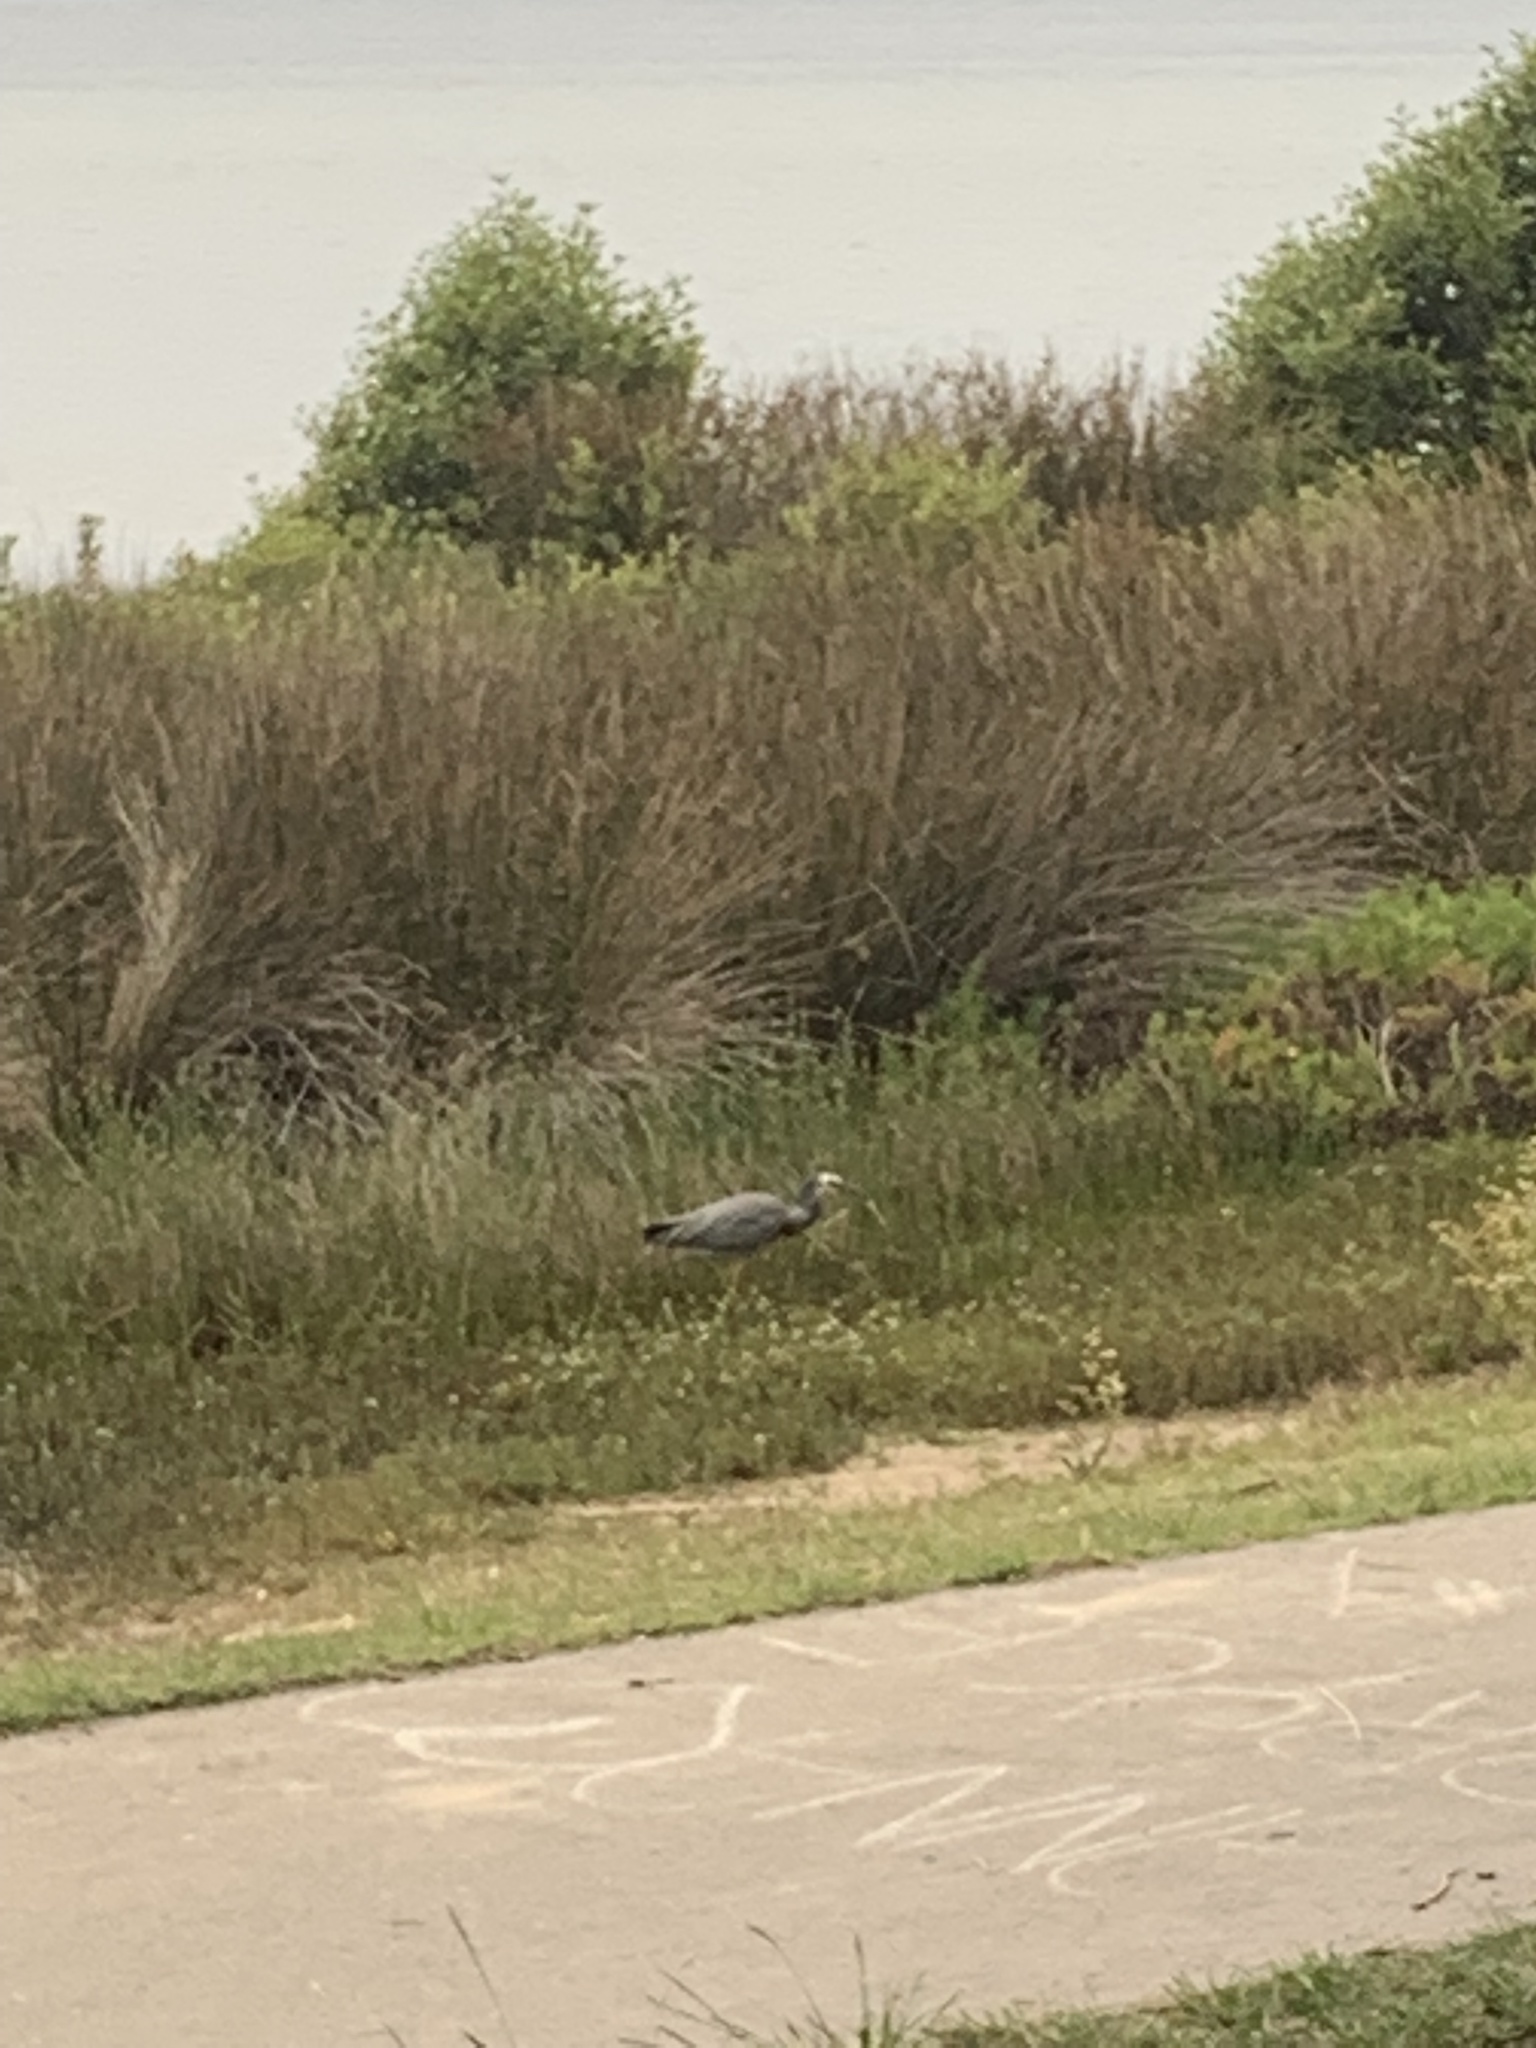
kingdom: Animalia
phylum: Chordata
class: Aves
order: Pelecaniformes
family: Ardeidae
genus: Egretta
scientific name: Egretta novaehollandiae
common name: White-faced heron
